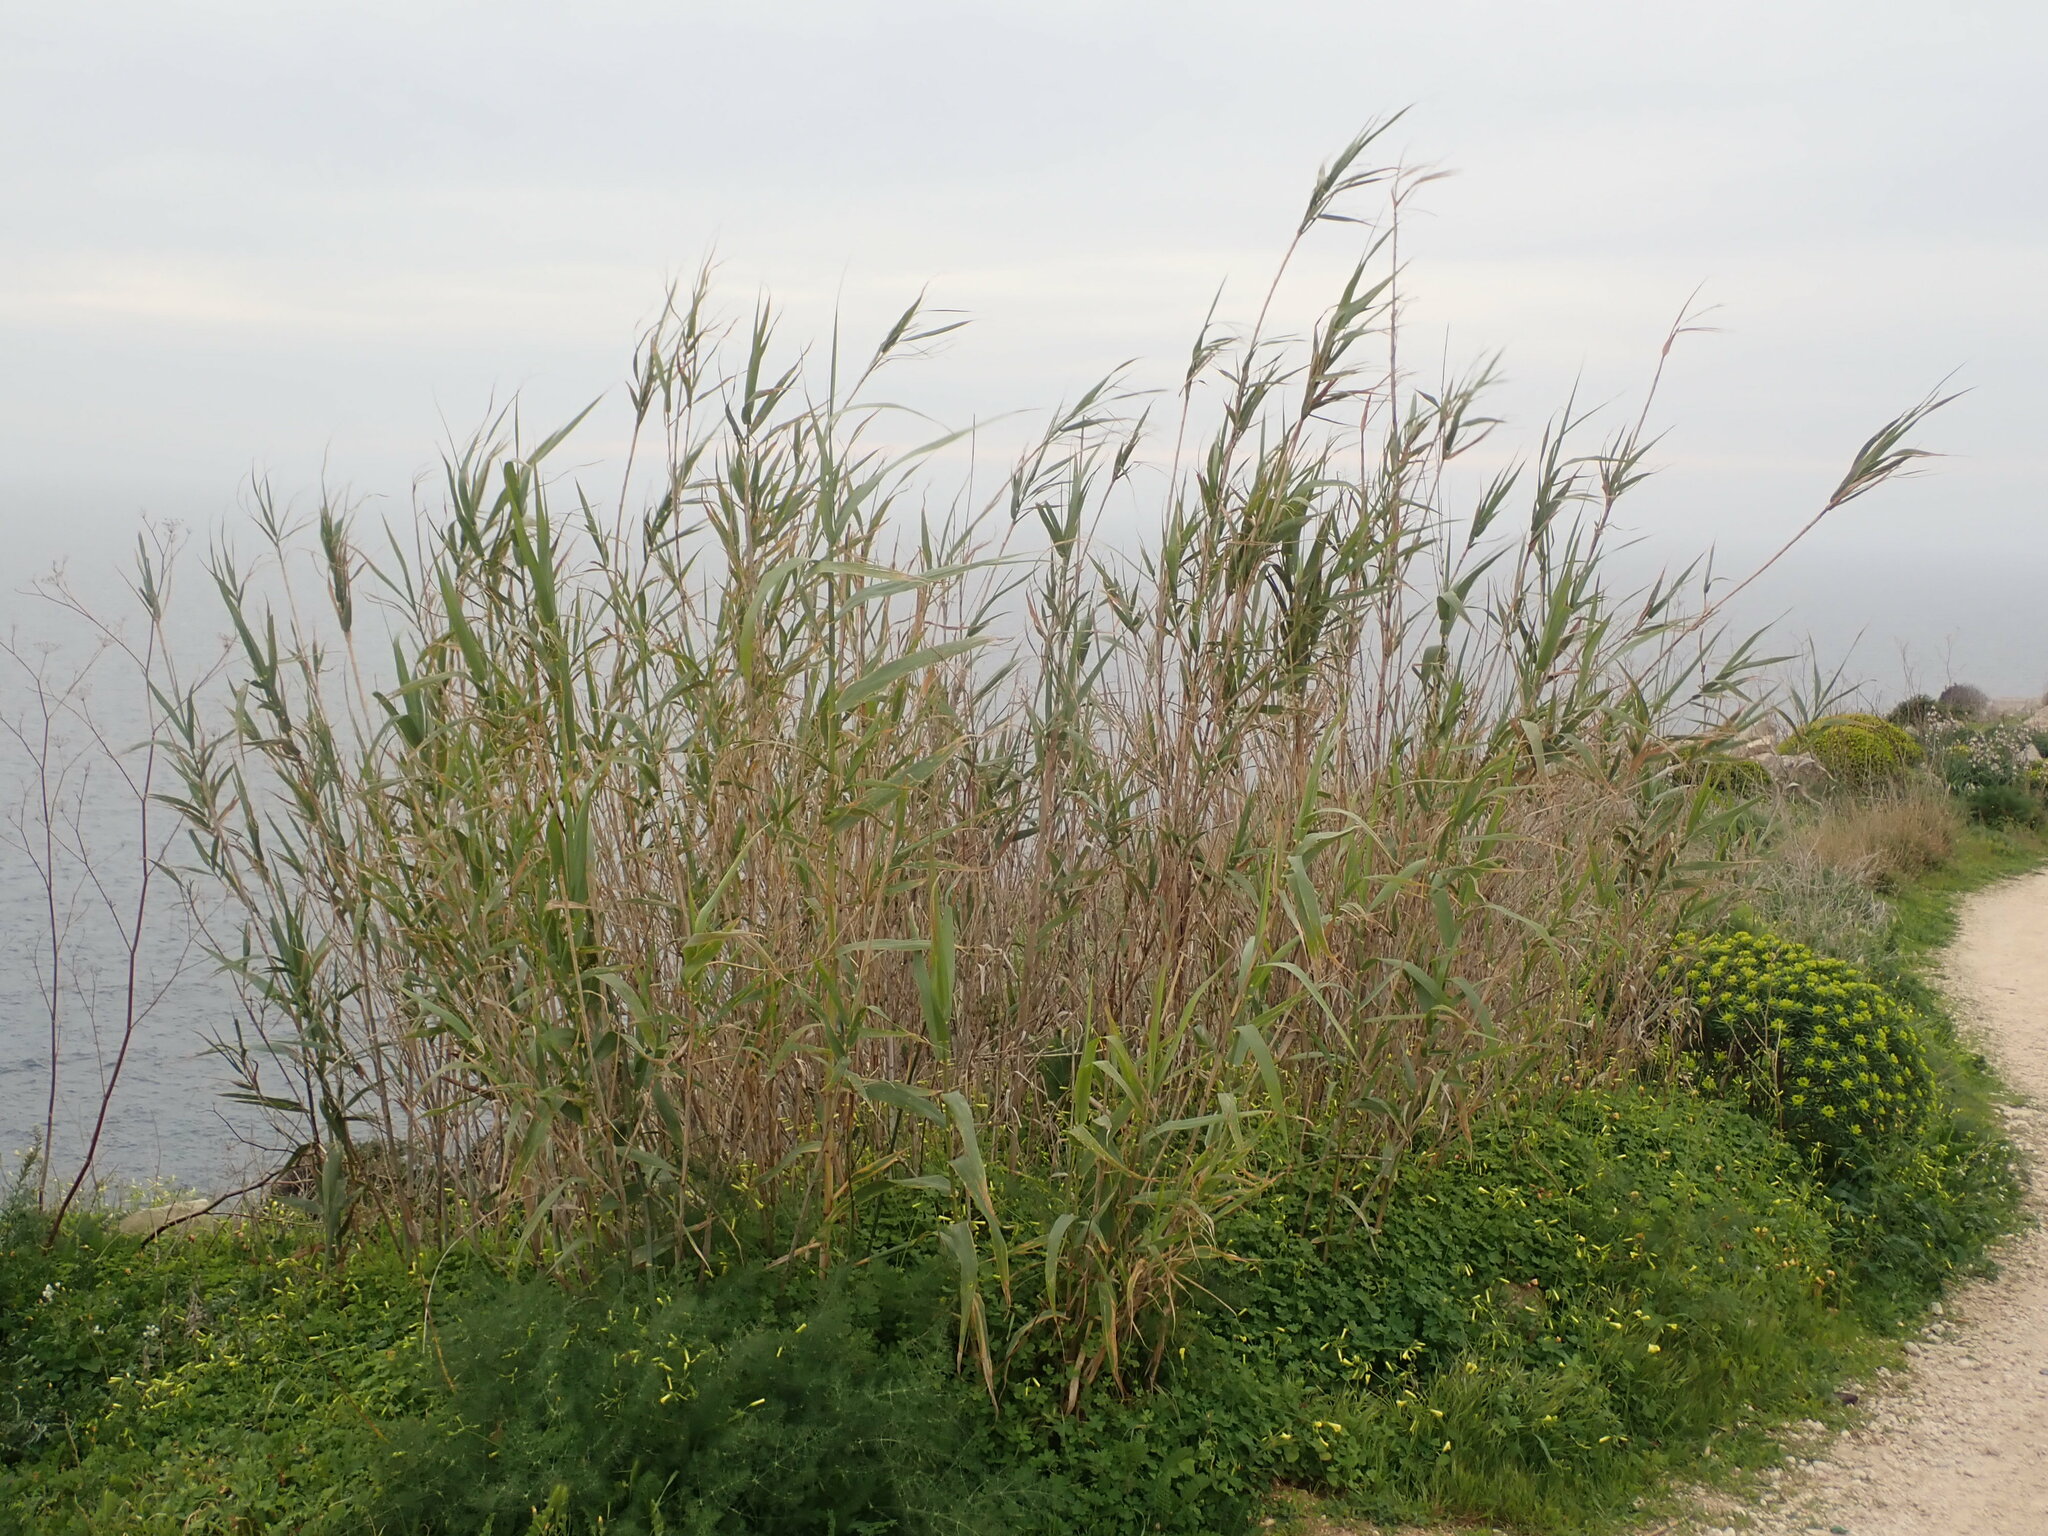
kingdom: Plantae
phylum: Tracheophyta
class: Liliopsida
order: Poales
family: Poaceae
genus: Arundo
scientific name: Arundo donax
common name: Giant reed
